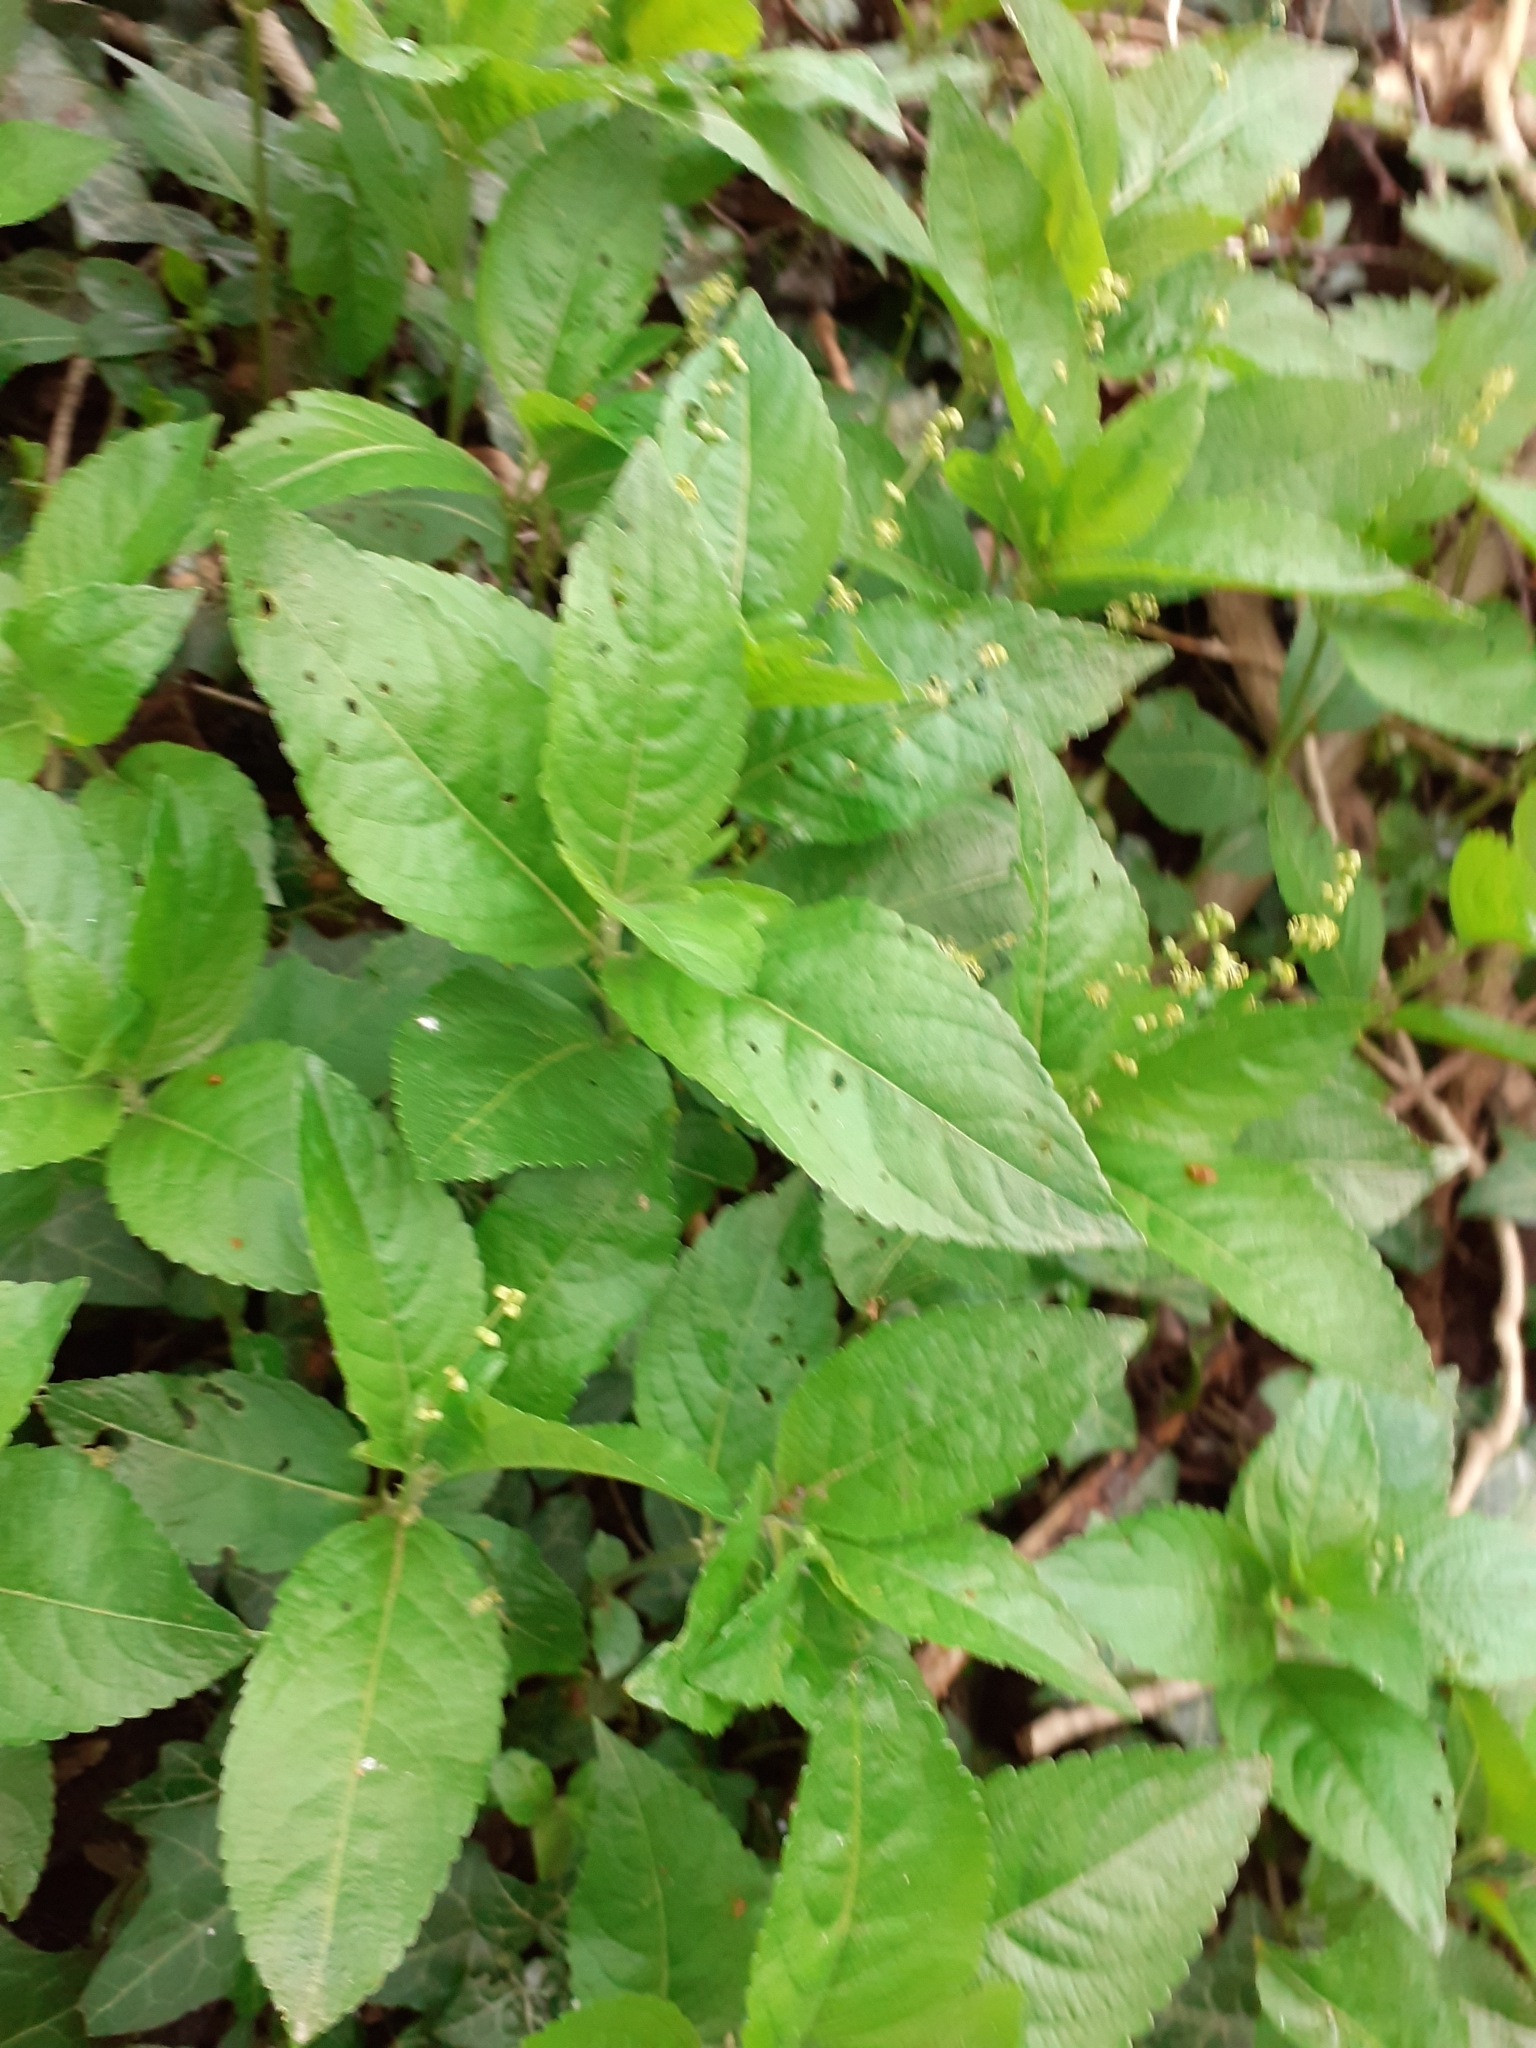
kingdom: Plantae
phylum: Tracheophyta
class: Magnoliopsida
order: Malpighiales
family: Euphorbiaceae
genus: Mercurialis
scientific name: Mercurialis perennis
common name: Dog mercury
